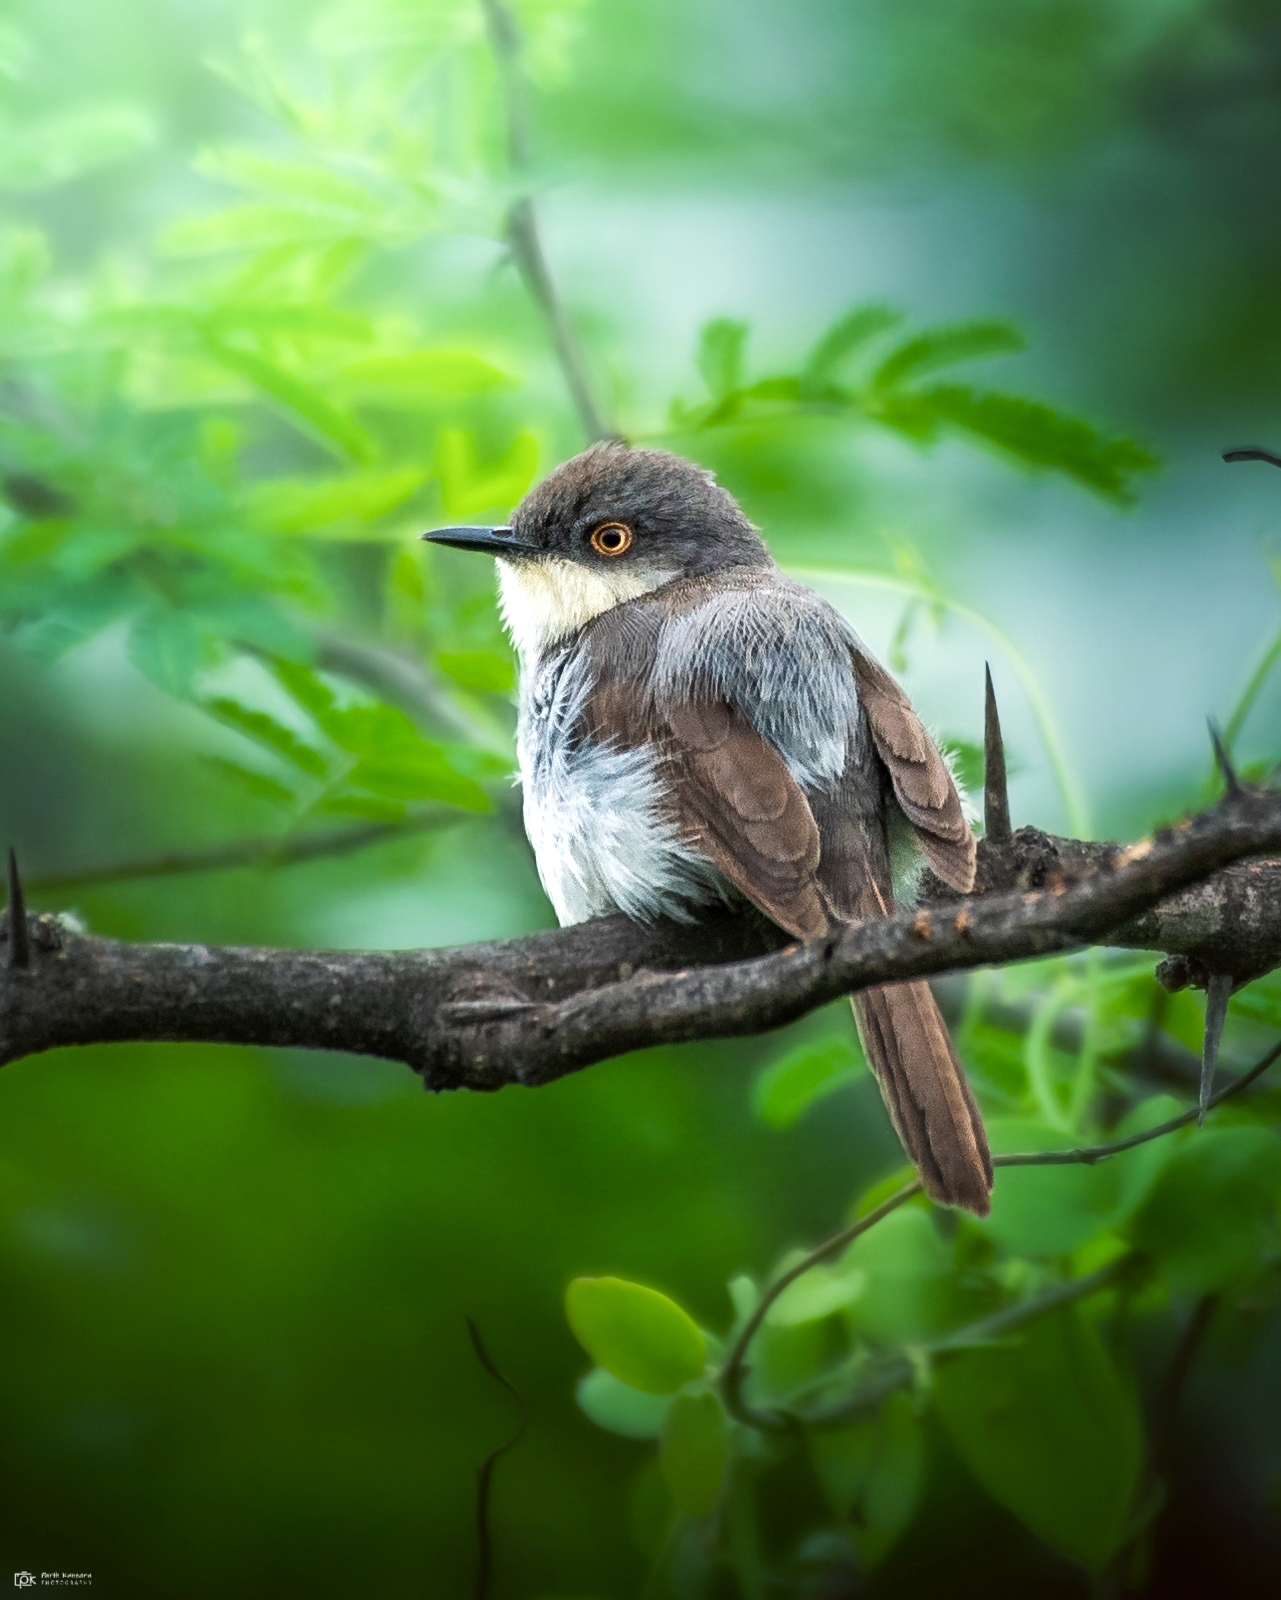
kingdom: Animalia
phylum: Chordata
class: Aves
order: Passeriformes
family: Cisticolidae
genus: Prinia
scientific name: Prinia hodgsonii
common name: Grey-breasted prinia
